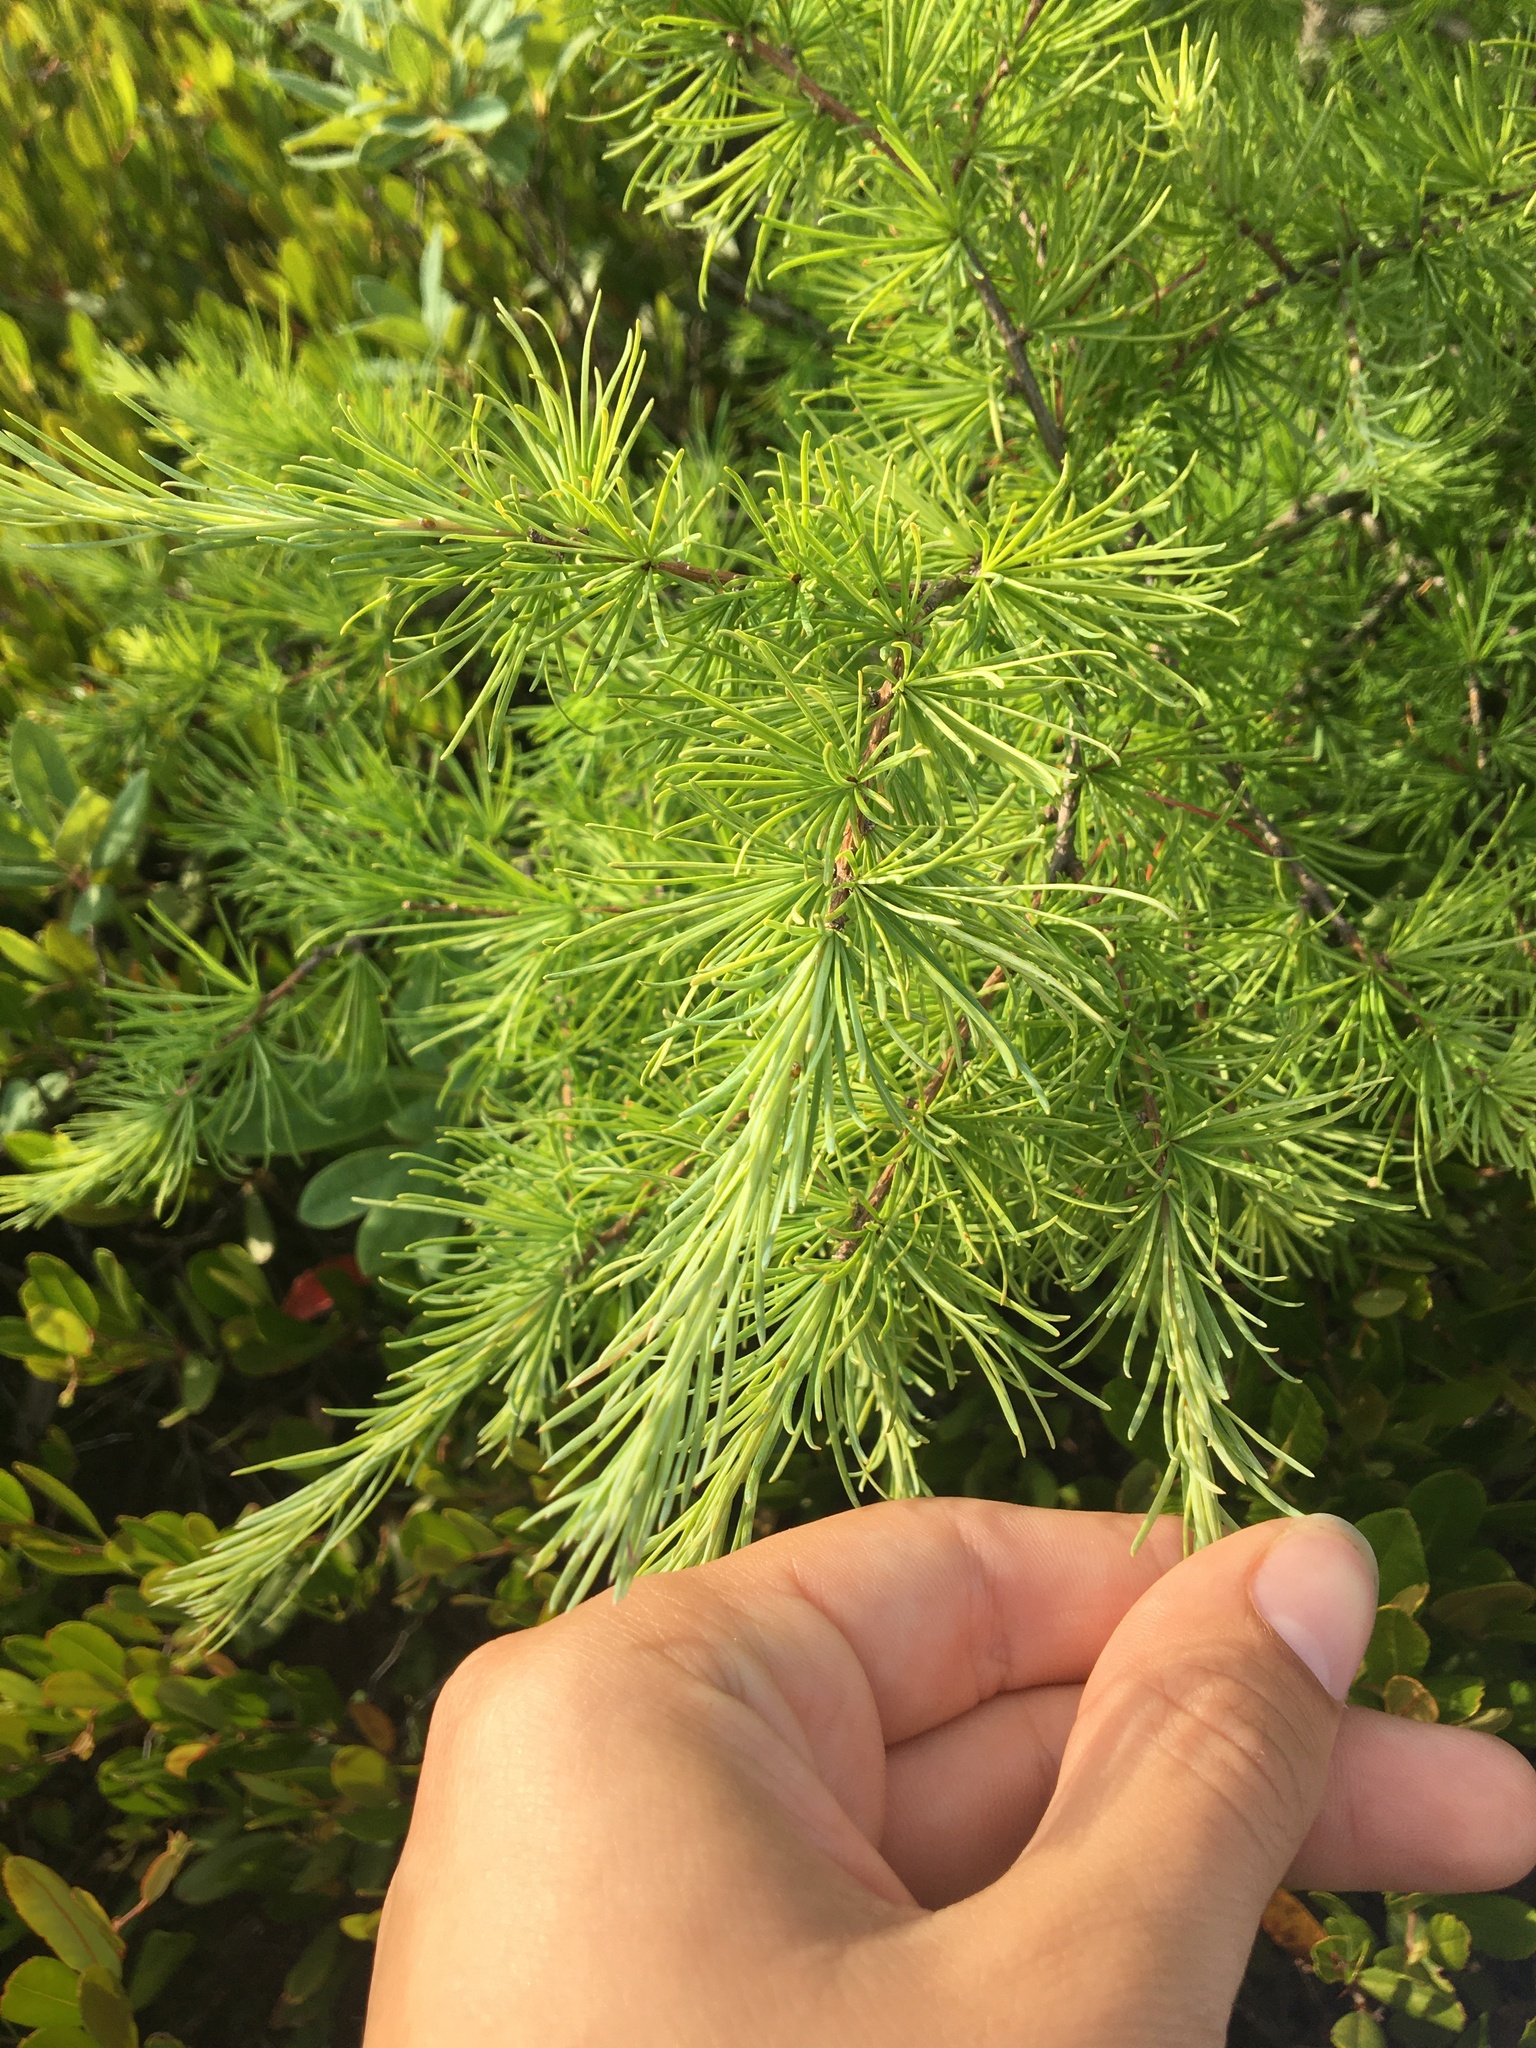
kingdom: Plantae
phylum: Tracheophyta
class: Pinopsida
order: Pinales
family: Pinaceae
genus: Larix
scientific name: Larix laricina
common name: American larch
